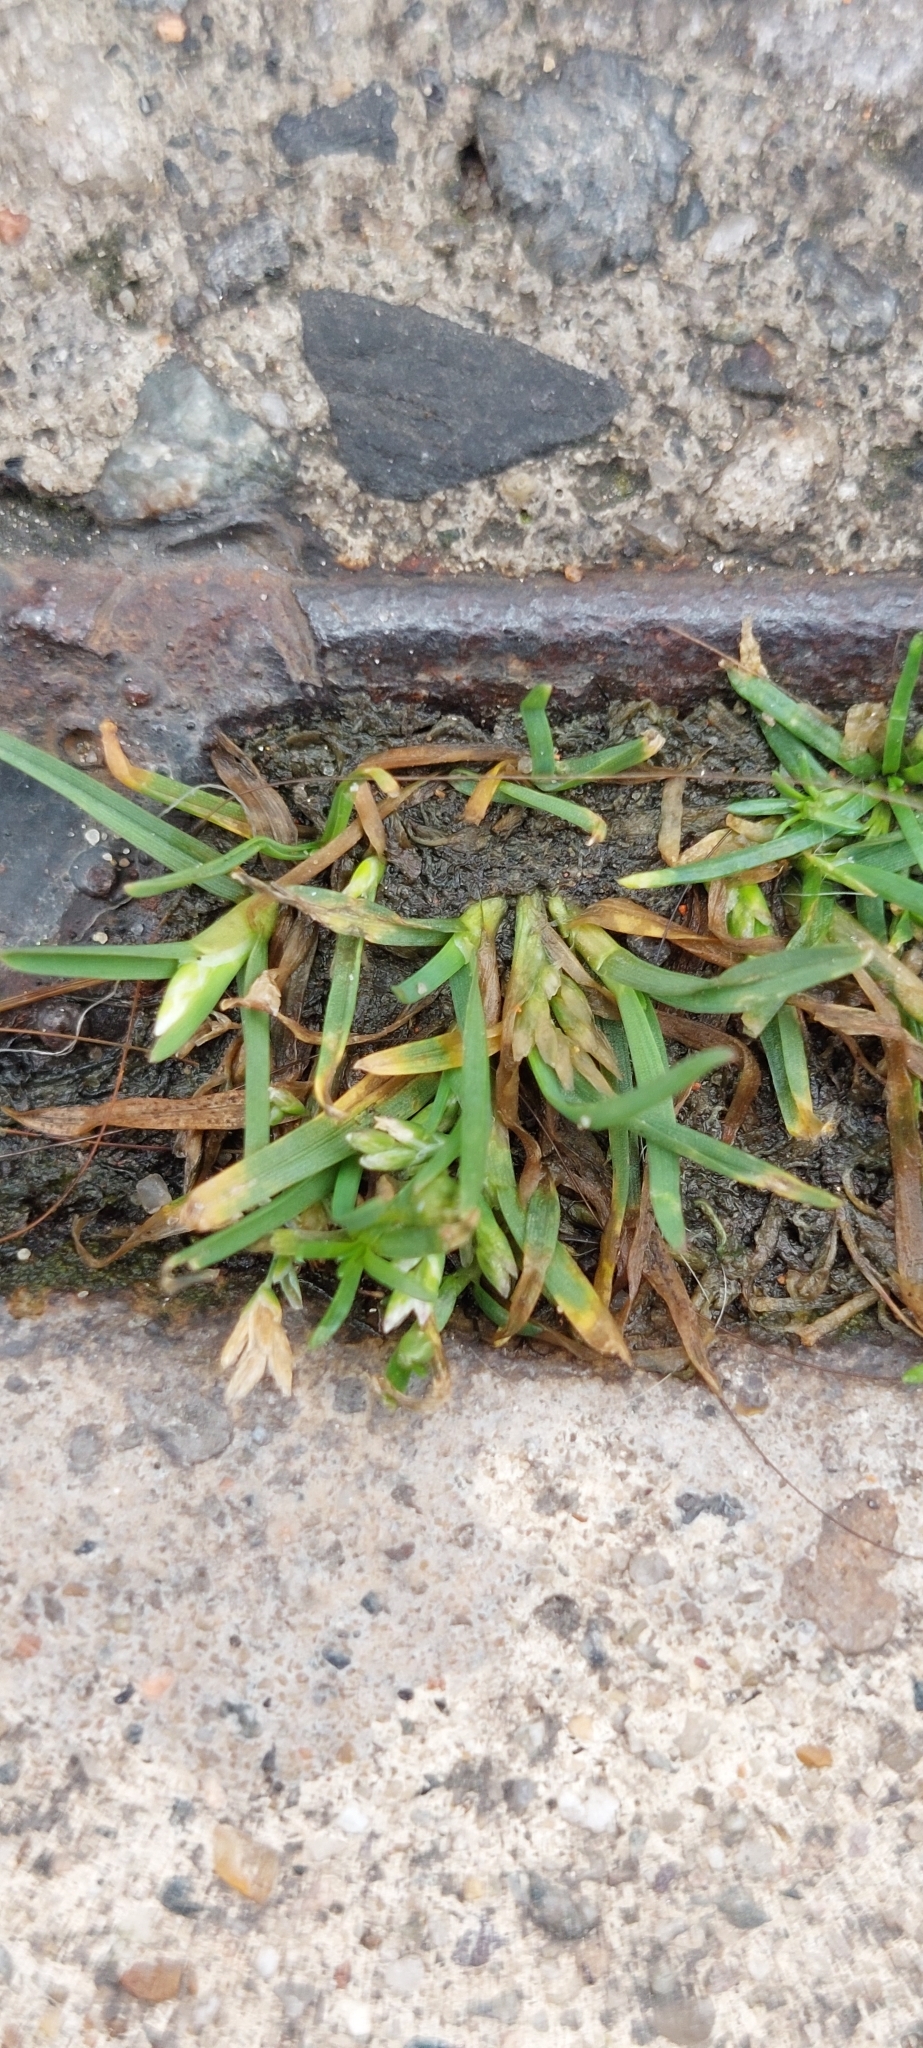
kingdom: Plantae
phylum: Tracheophyta
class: Liliopsida
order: Poales
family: Poaceae
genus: Poa
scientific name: Poa annua
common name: Annual bluegrass
